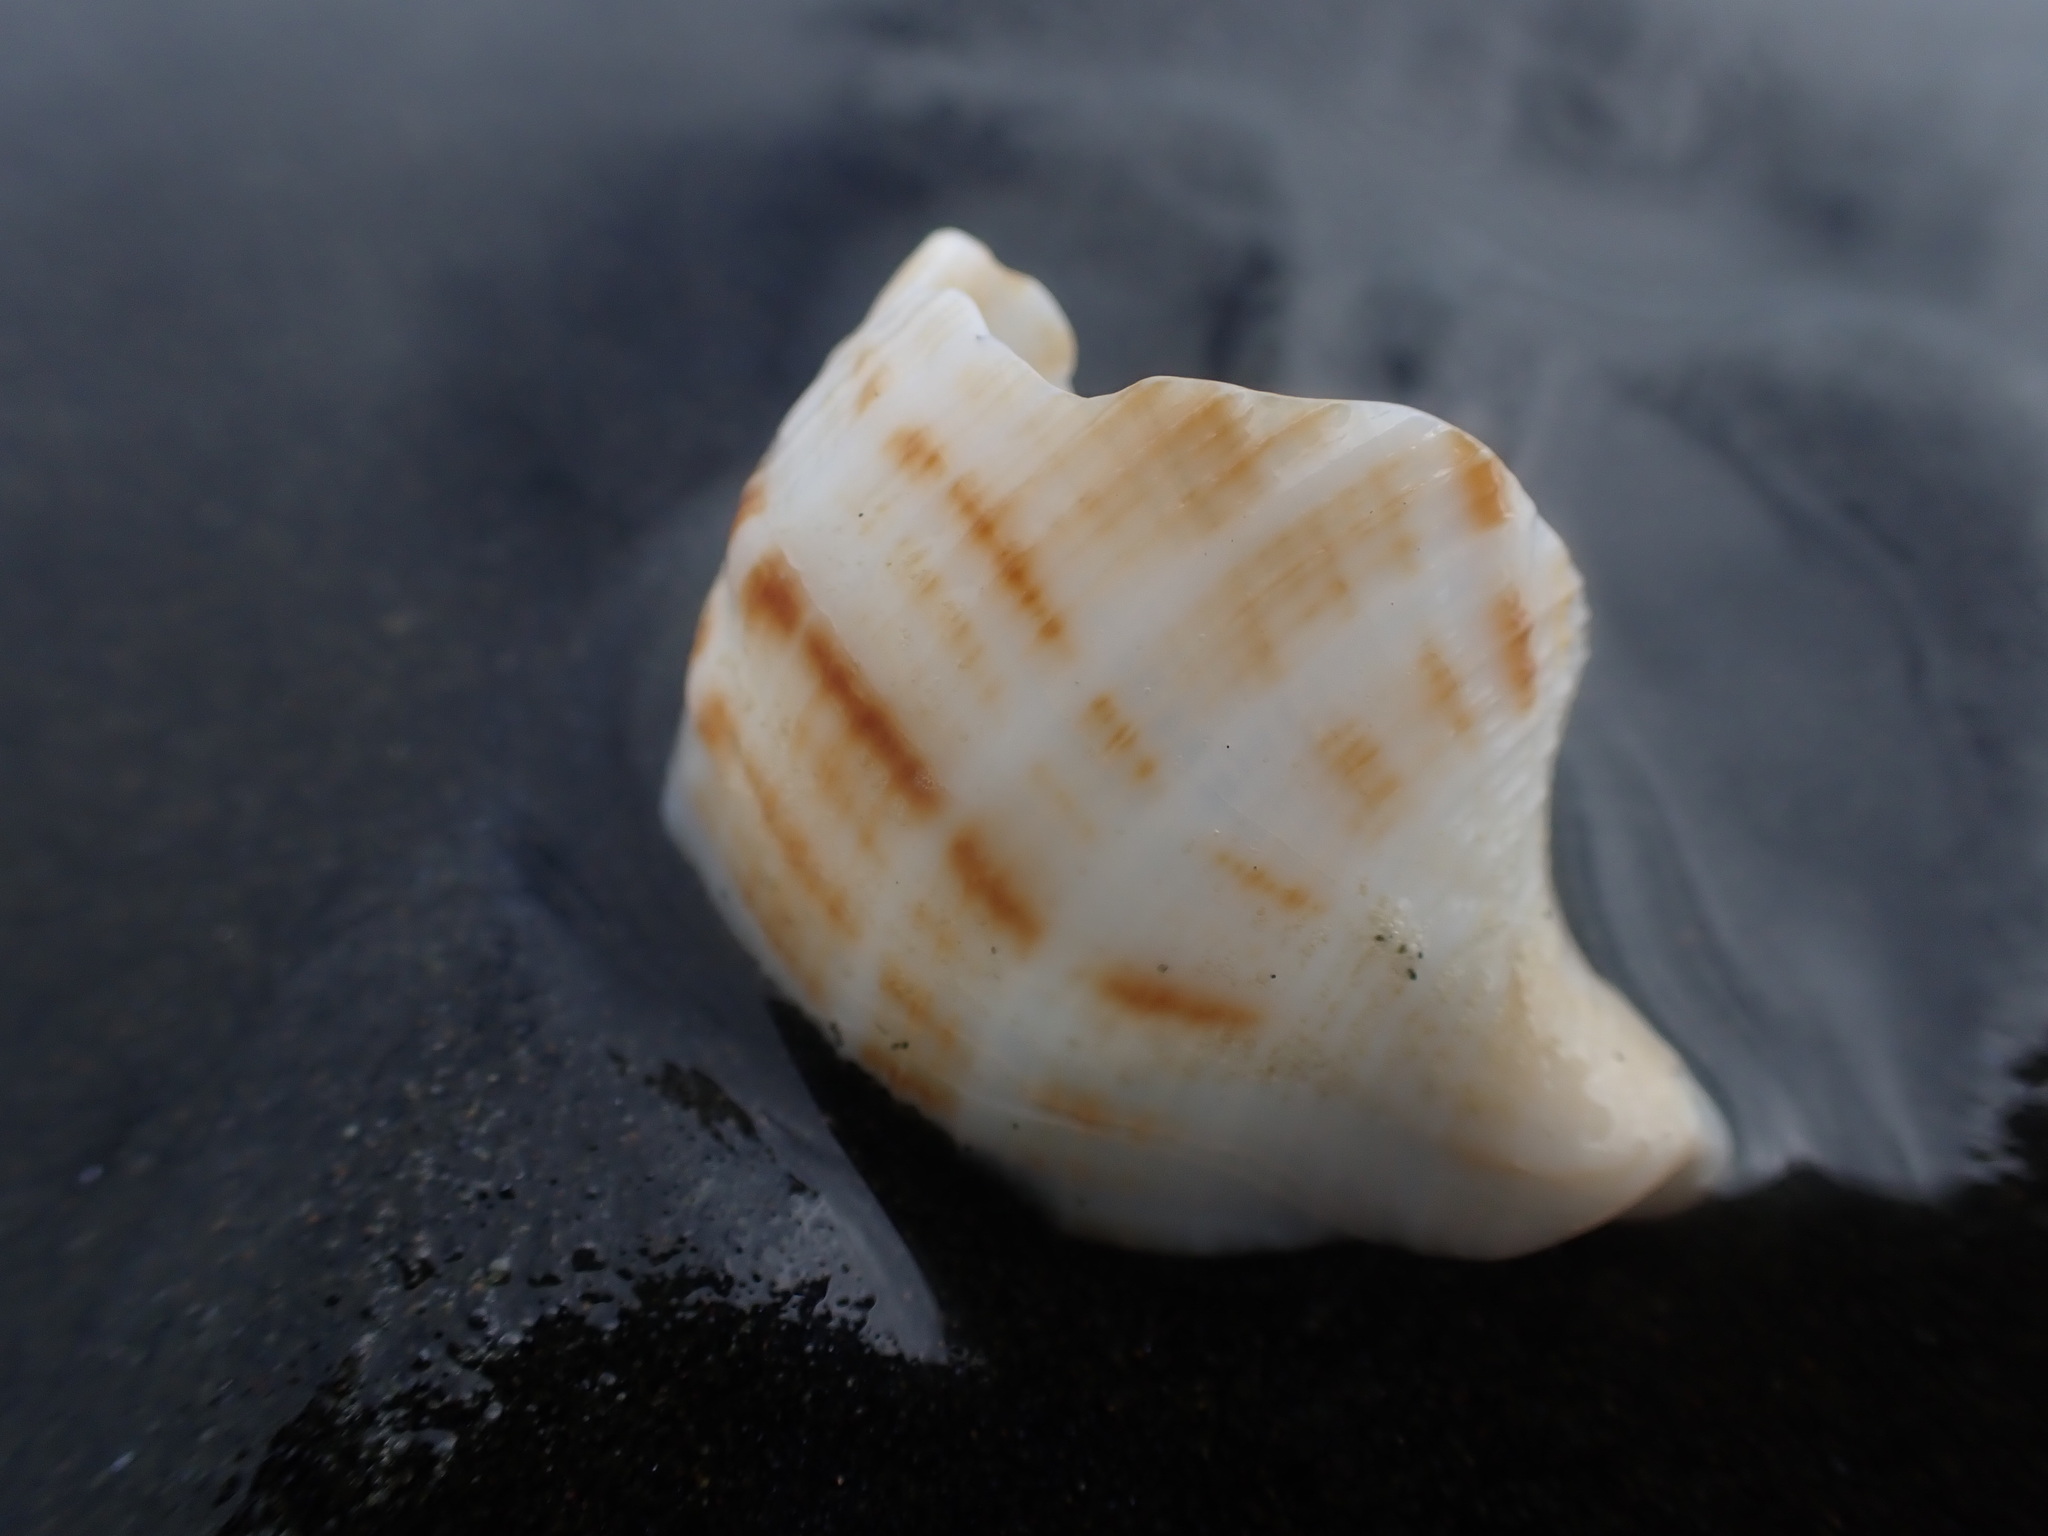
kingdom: Animalia
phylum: Mollusca
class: Gastropoda
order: Neogastropoda
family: Prosiphonidae
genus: Austrofusus
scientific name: Austrofusus glans
